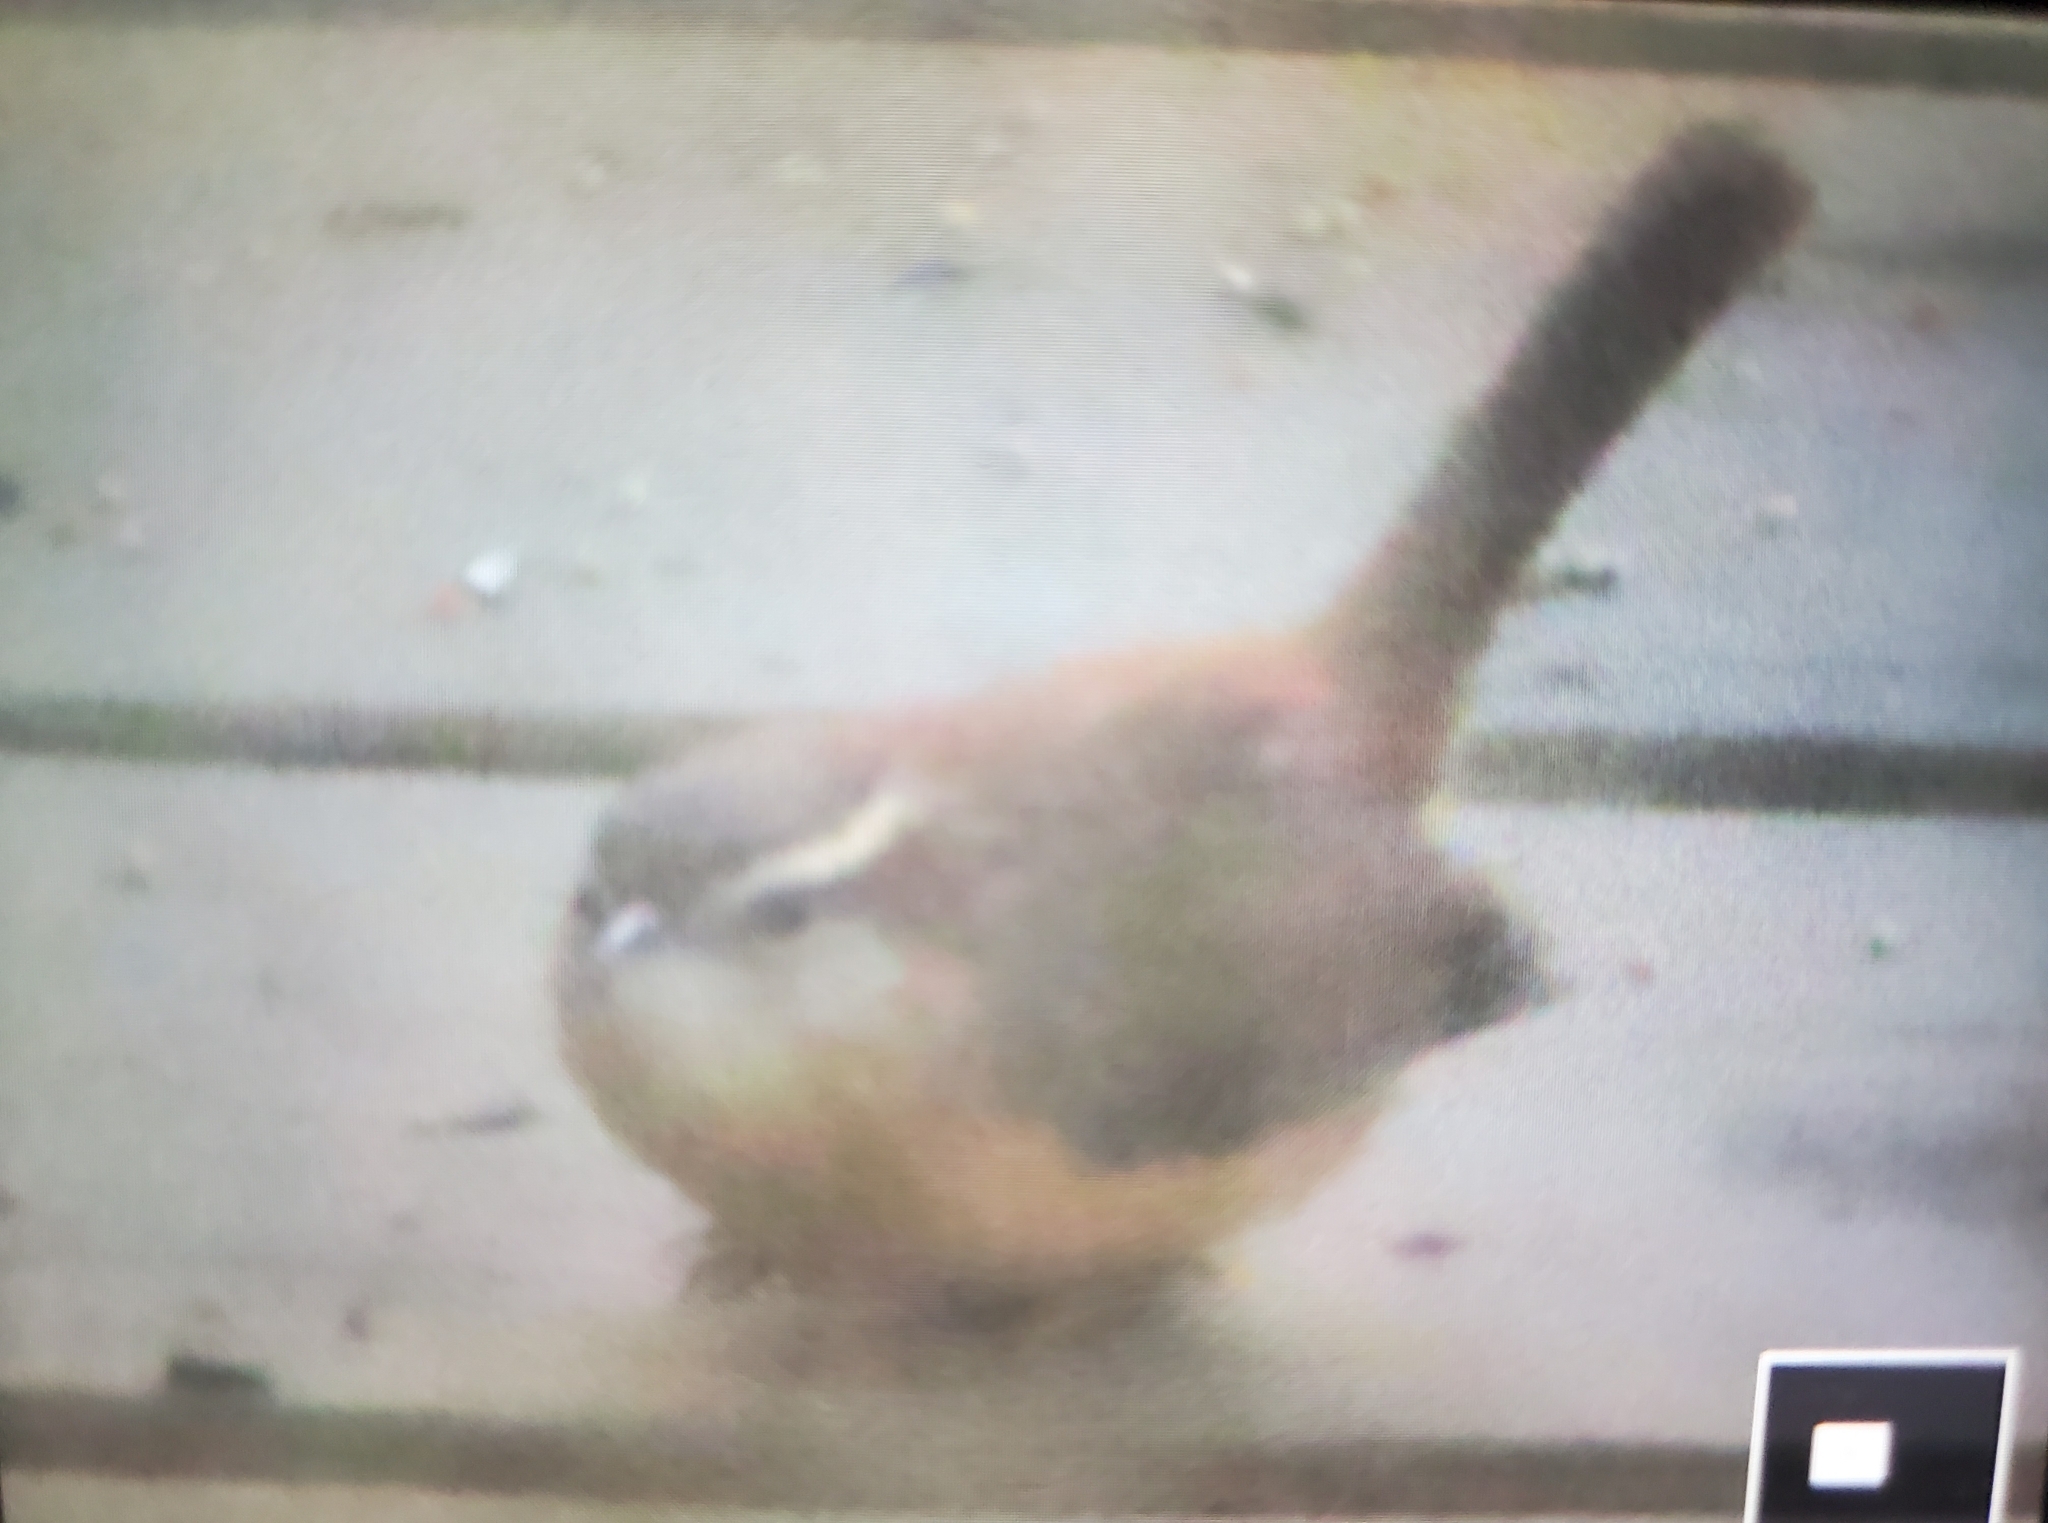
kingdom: Animalia
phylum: Chordata
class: Aves
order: Passeriformes
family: Troglodytidae
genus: Thryothorus
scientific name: Thryothorus ludovicianus
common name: Carolina wren
